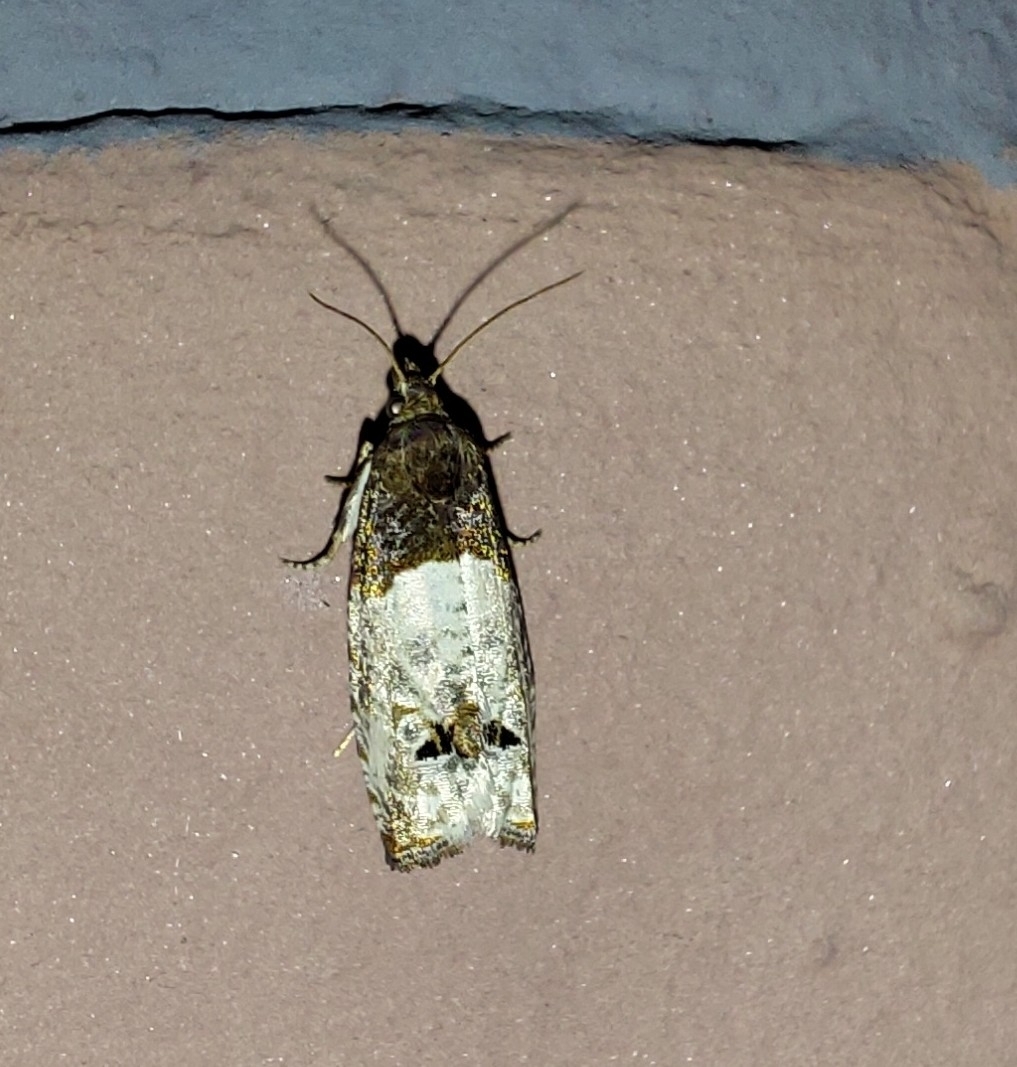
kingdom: Animalia
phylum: Arthropoda
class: Insecta
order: Lepidoptera
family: Tortricidae
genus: Epiblema
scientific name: Epiblema aquana
